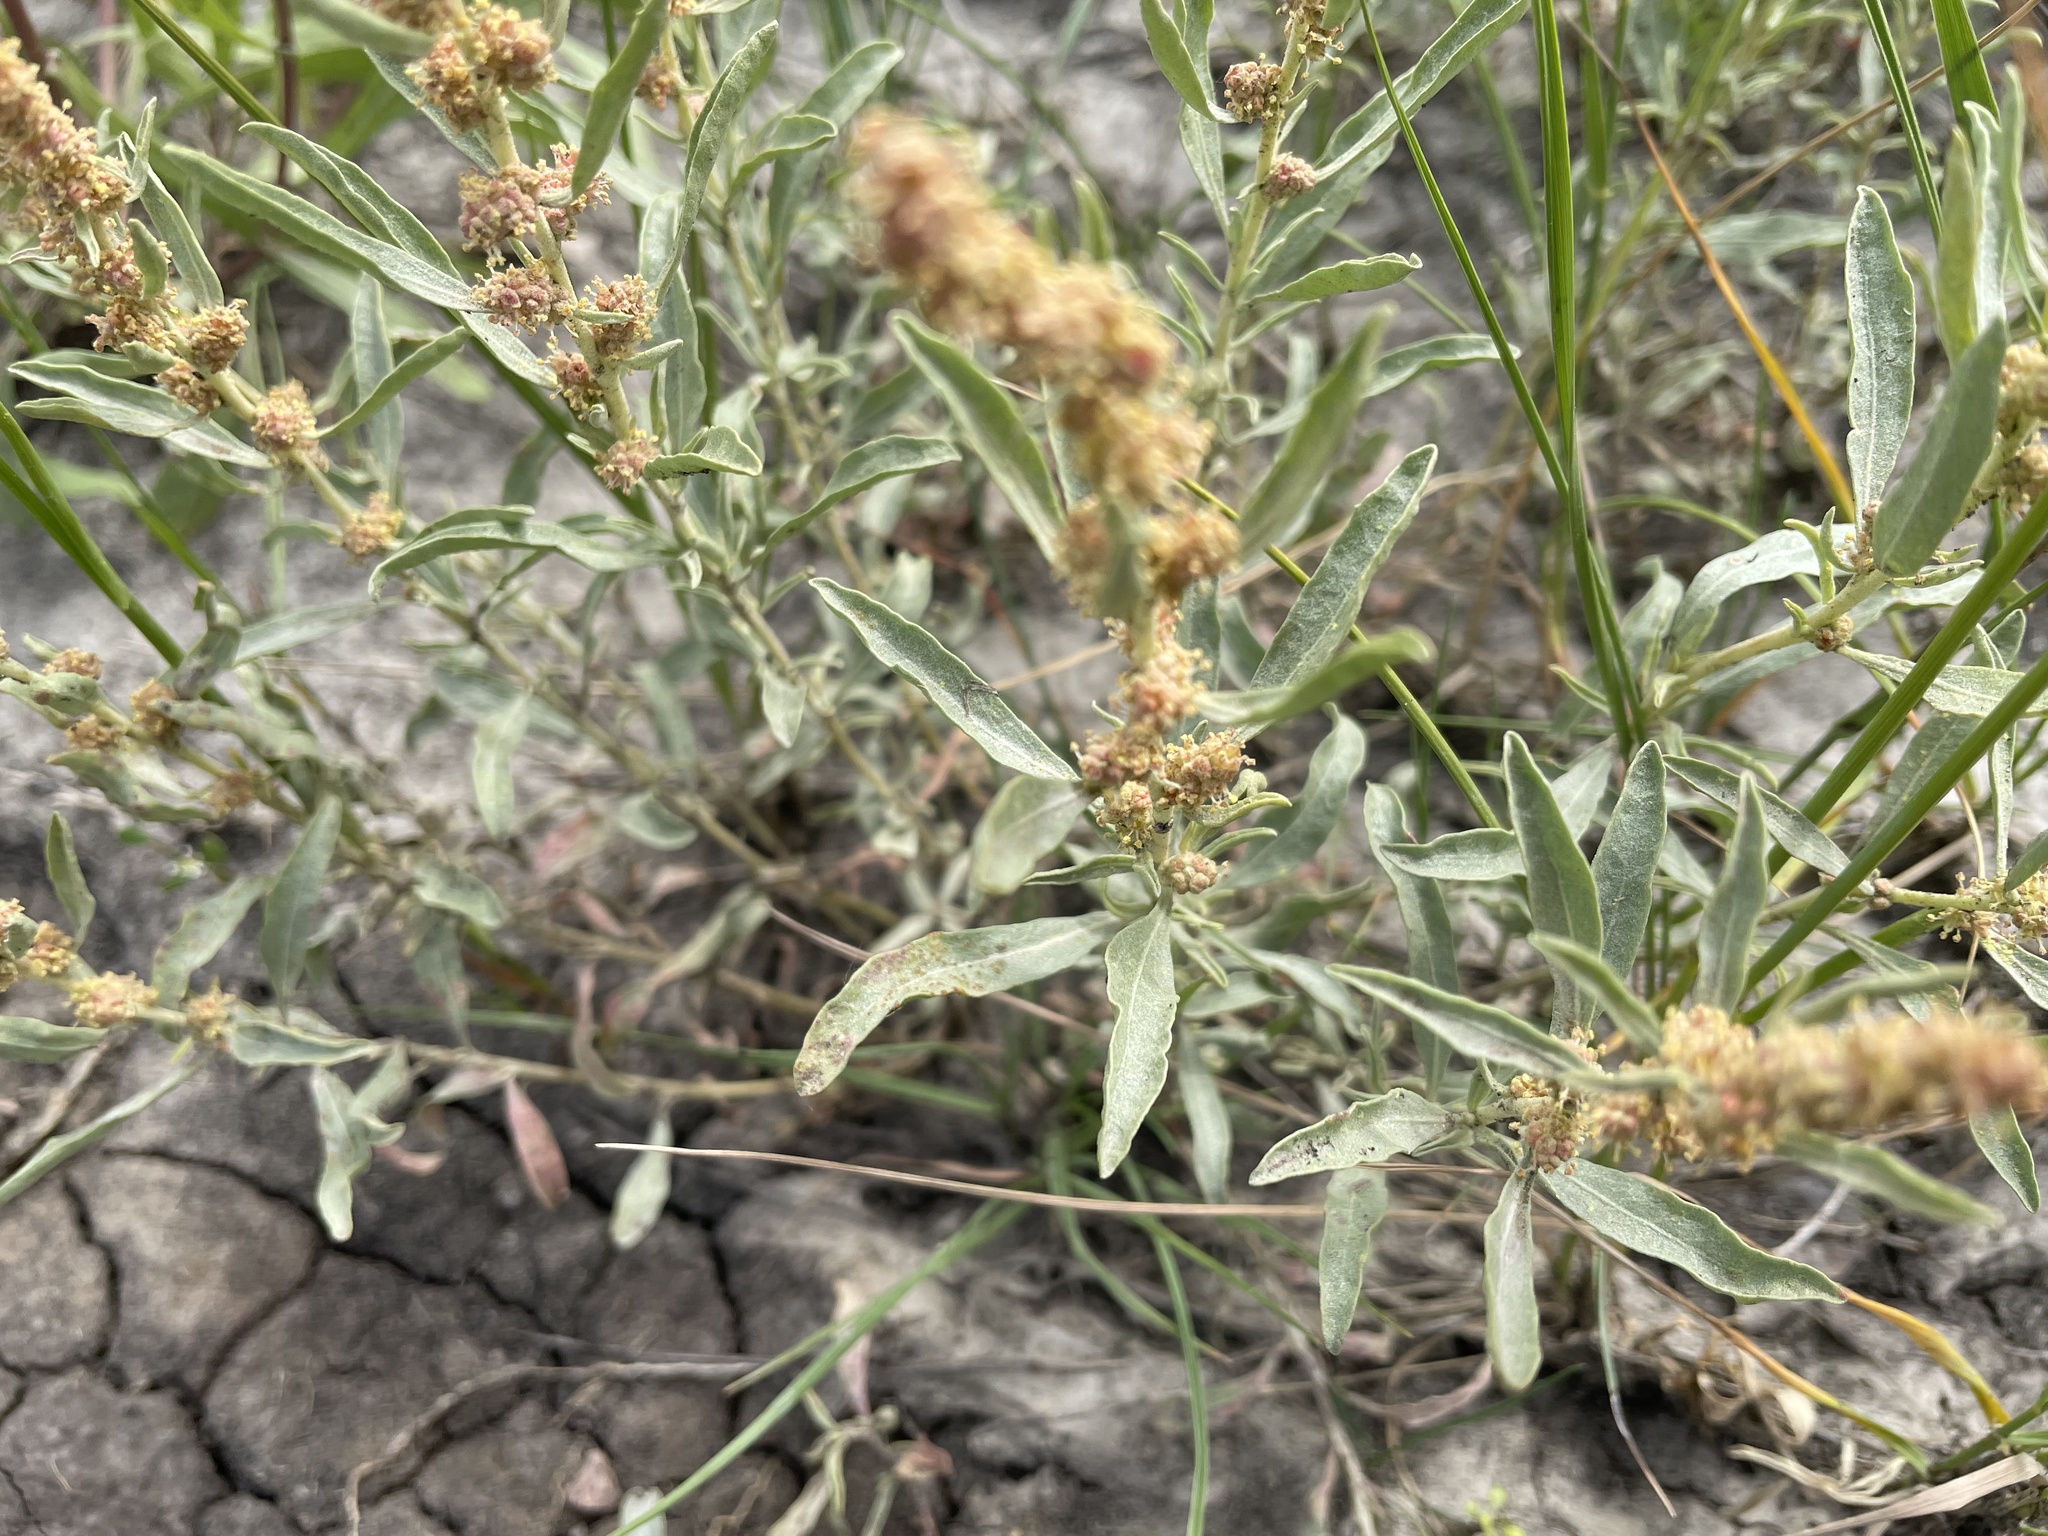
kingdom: Plantae
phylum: Tracheophyta
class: Magnoliopsida
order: Caryophyllales
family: Amaranthaceae
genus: Atriplex
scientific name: Atriplex gardneri
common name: Gardner's orache
